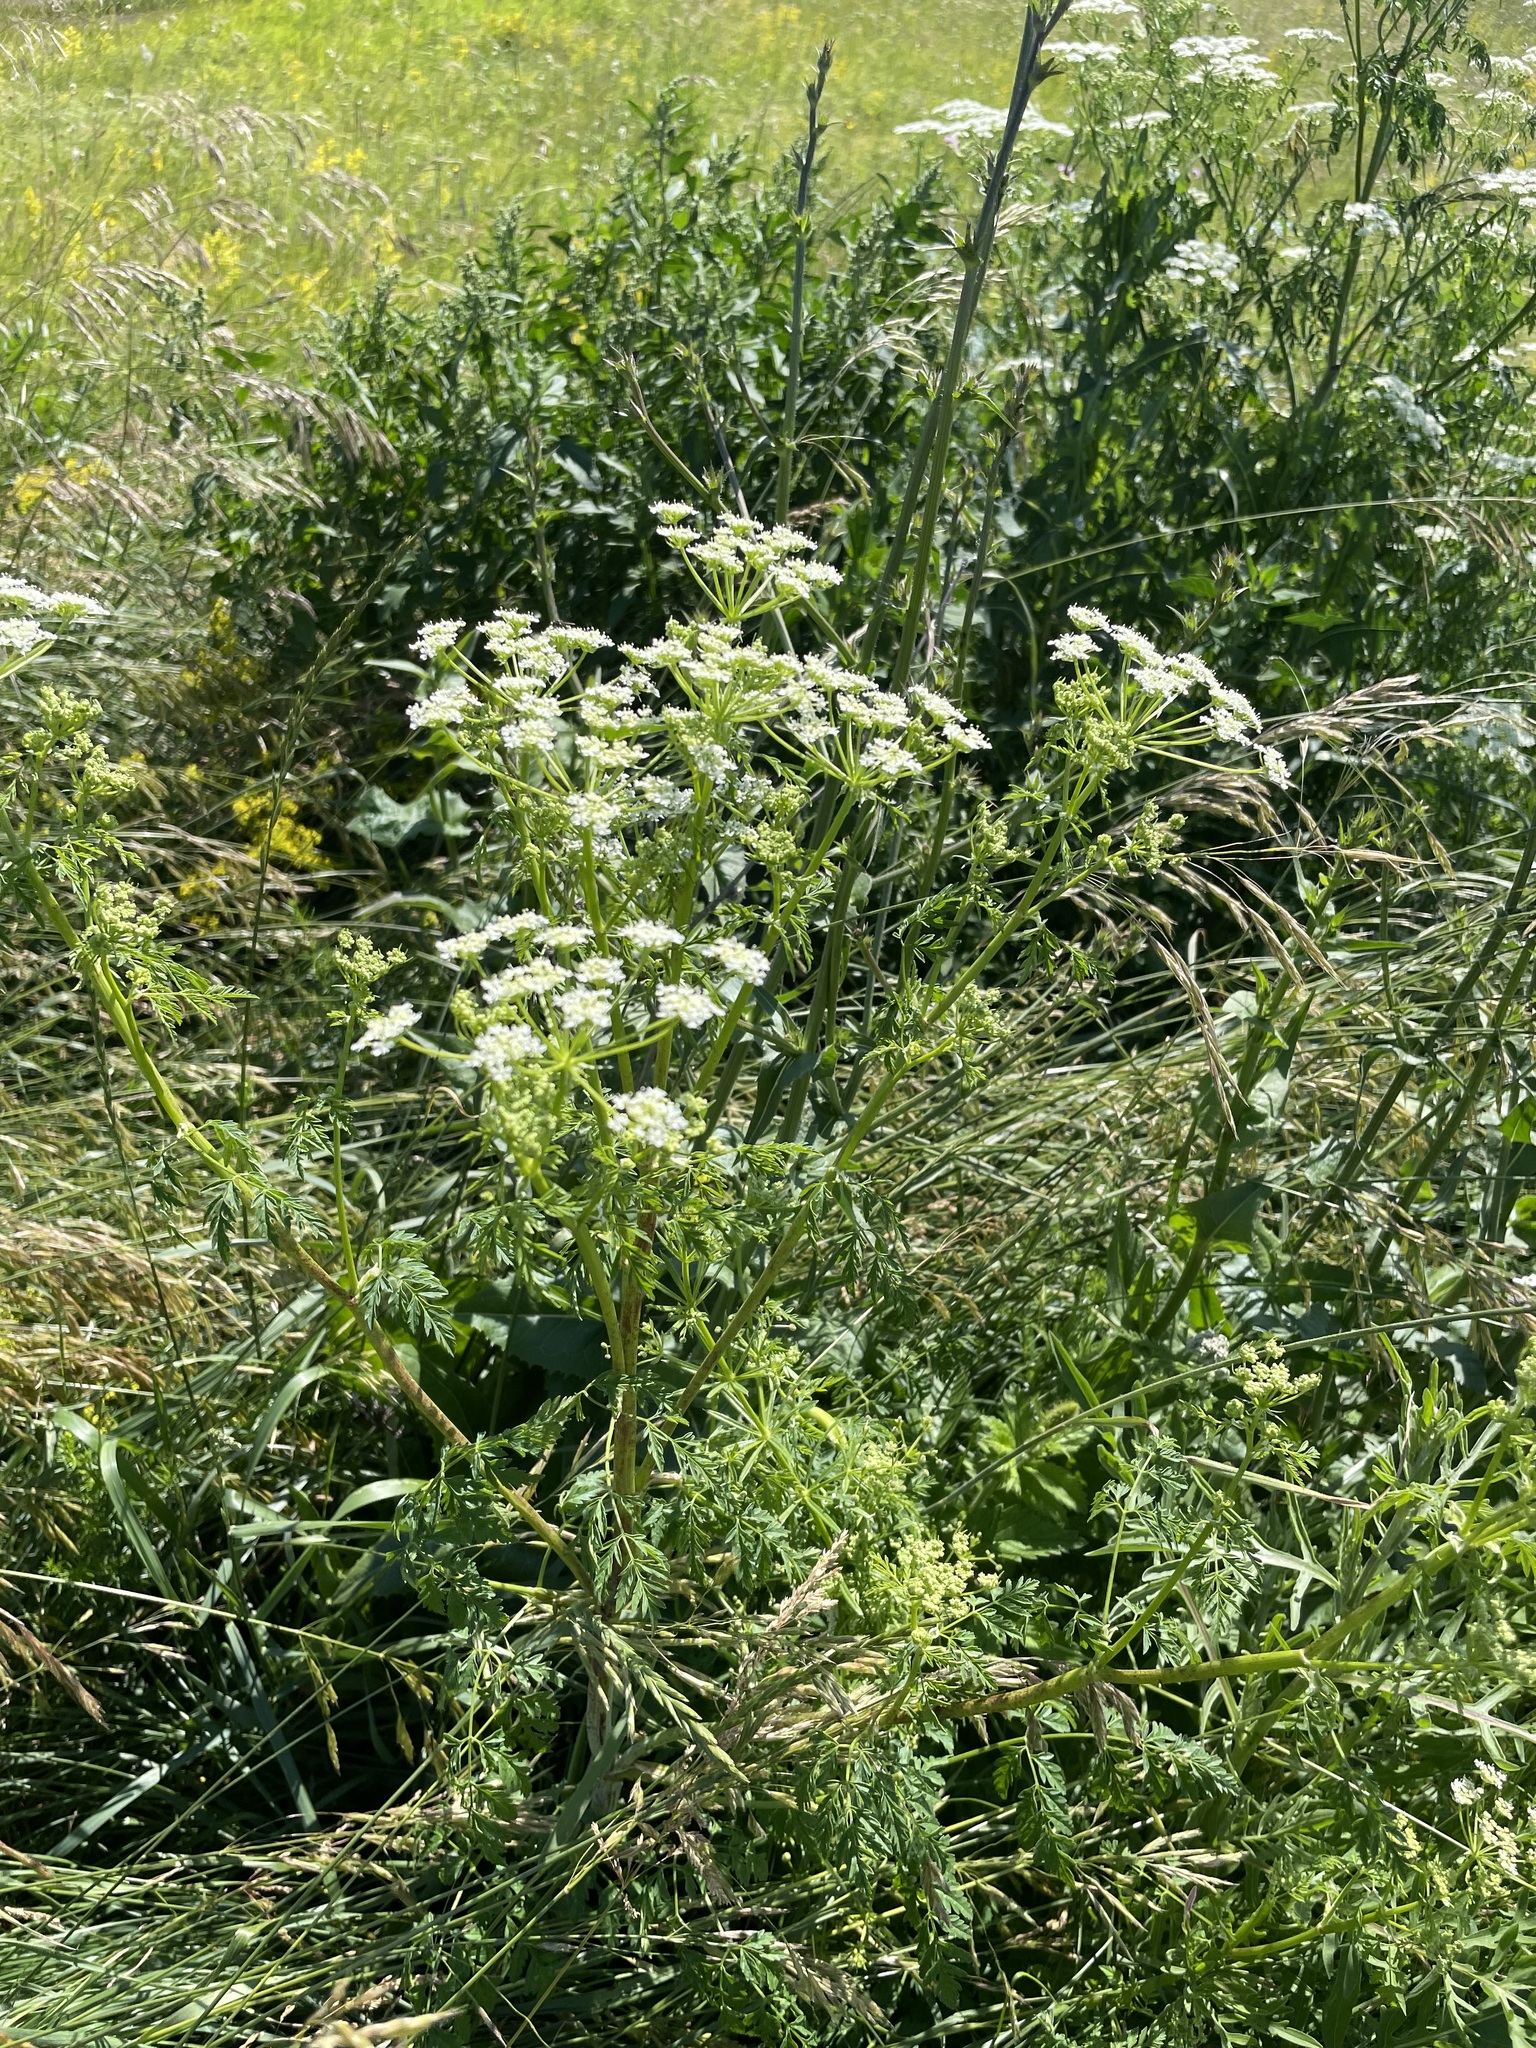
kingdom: Plantae
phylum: Tracheophyta
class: Magnoliopsida
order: Apiales
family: Apiaceae
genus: Conium
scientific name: Conium maculatum
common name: Hemlock
